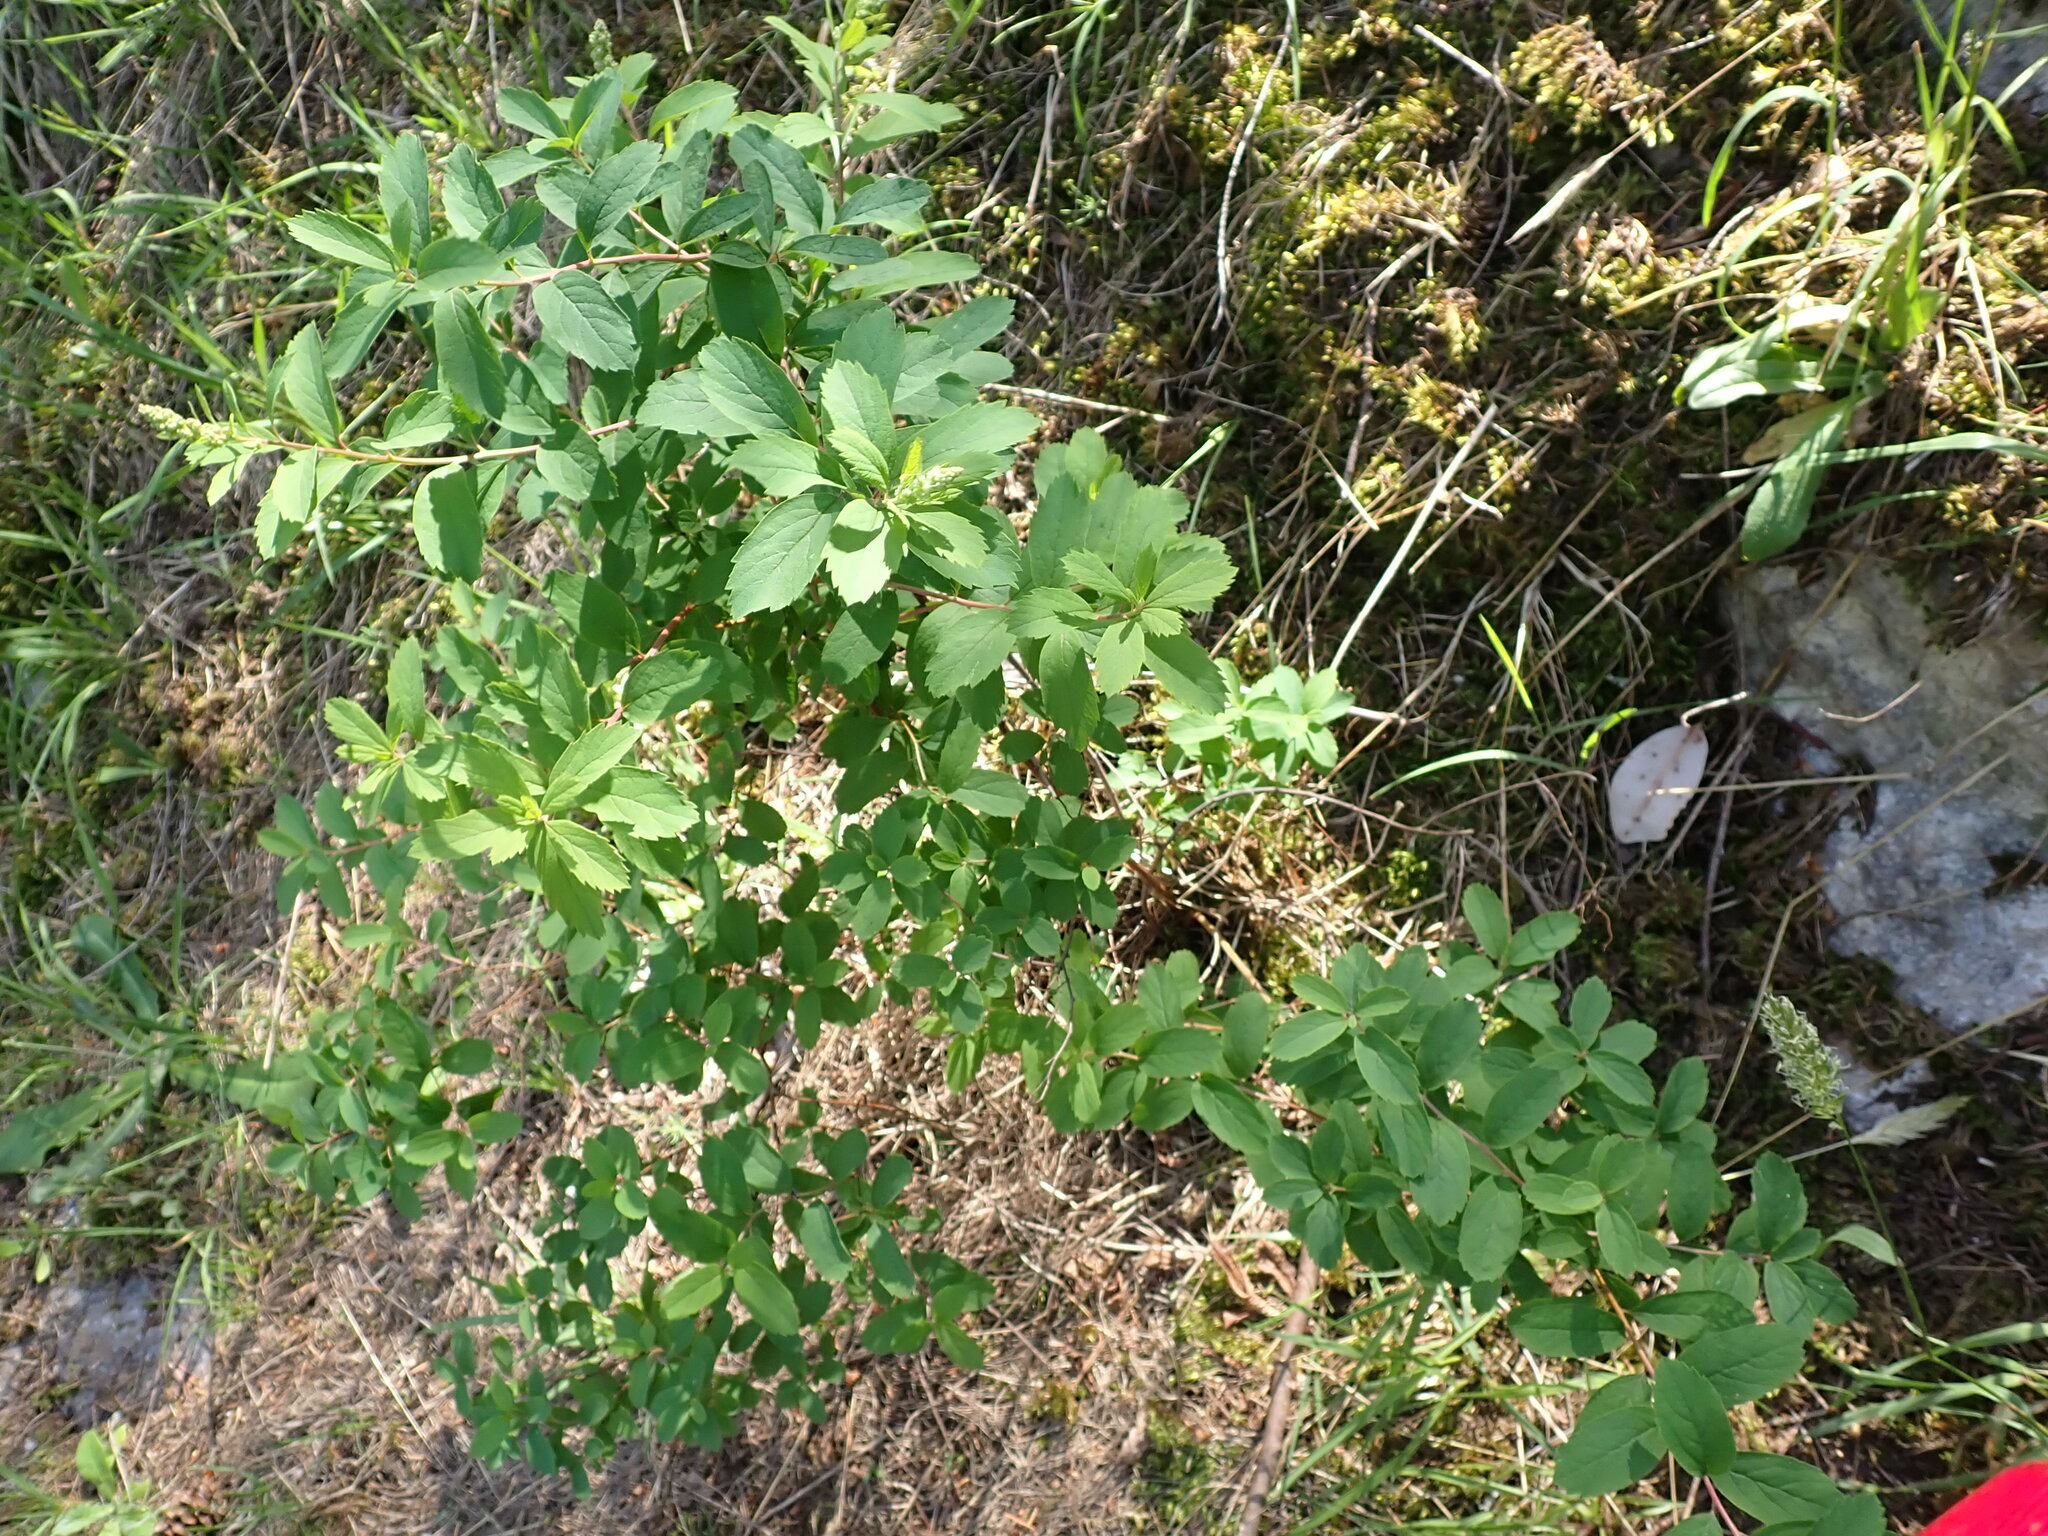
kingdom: Plantae
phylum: Tracheophyta
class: Magnoliopsida
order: Rosales
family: Rosaceae
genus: Spiraea
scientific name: Spiraea douglasii
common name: Steeplebush
